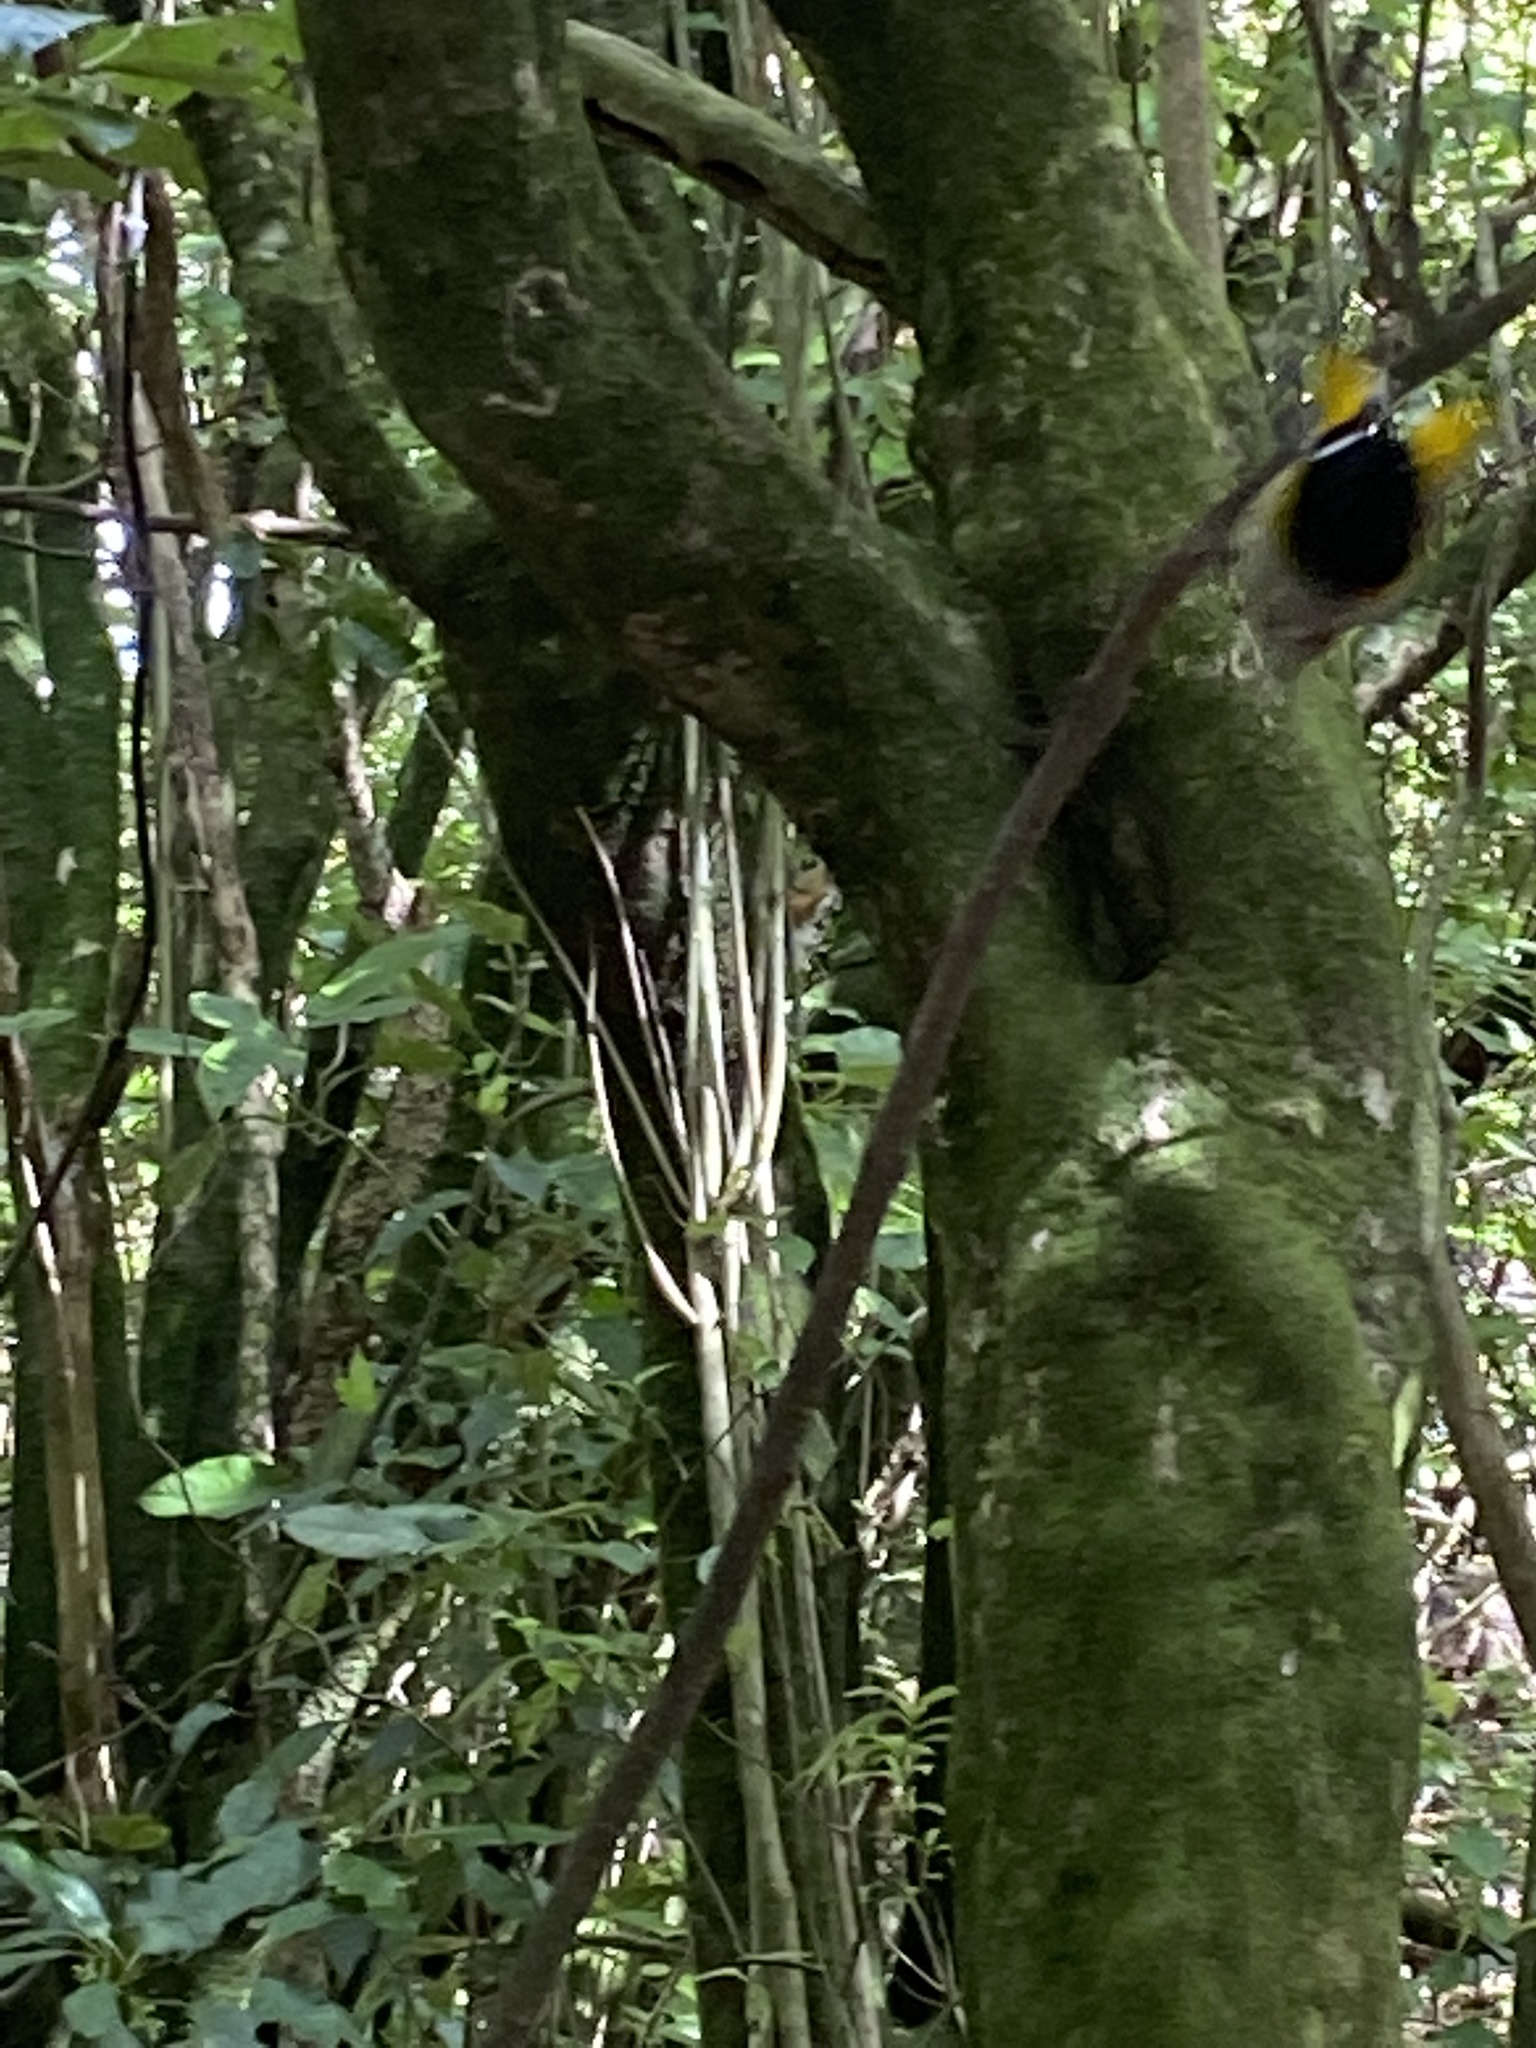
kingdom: Animalia
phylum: Chordata
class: Aves
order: Passeriformes
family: Notiomystidae
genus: Notiomystis
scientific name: Notiomystis cincta
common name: Stitchbird
